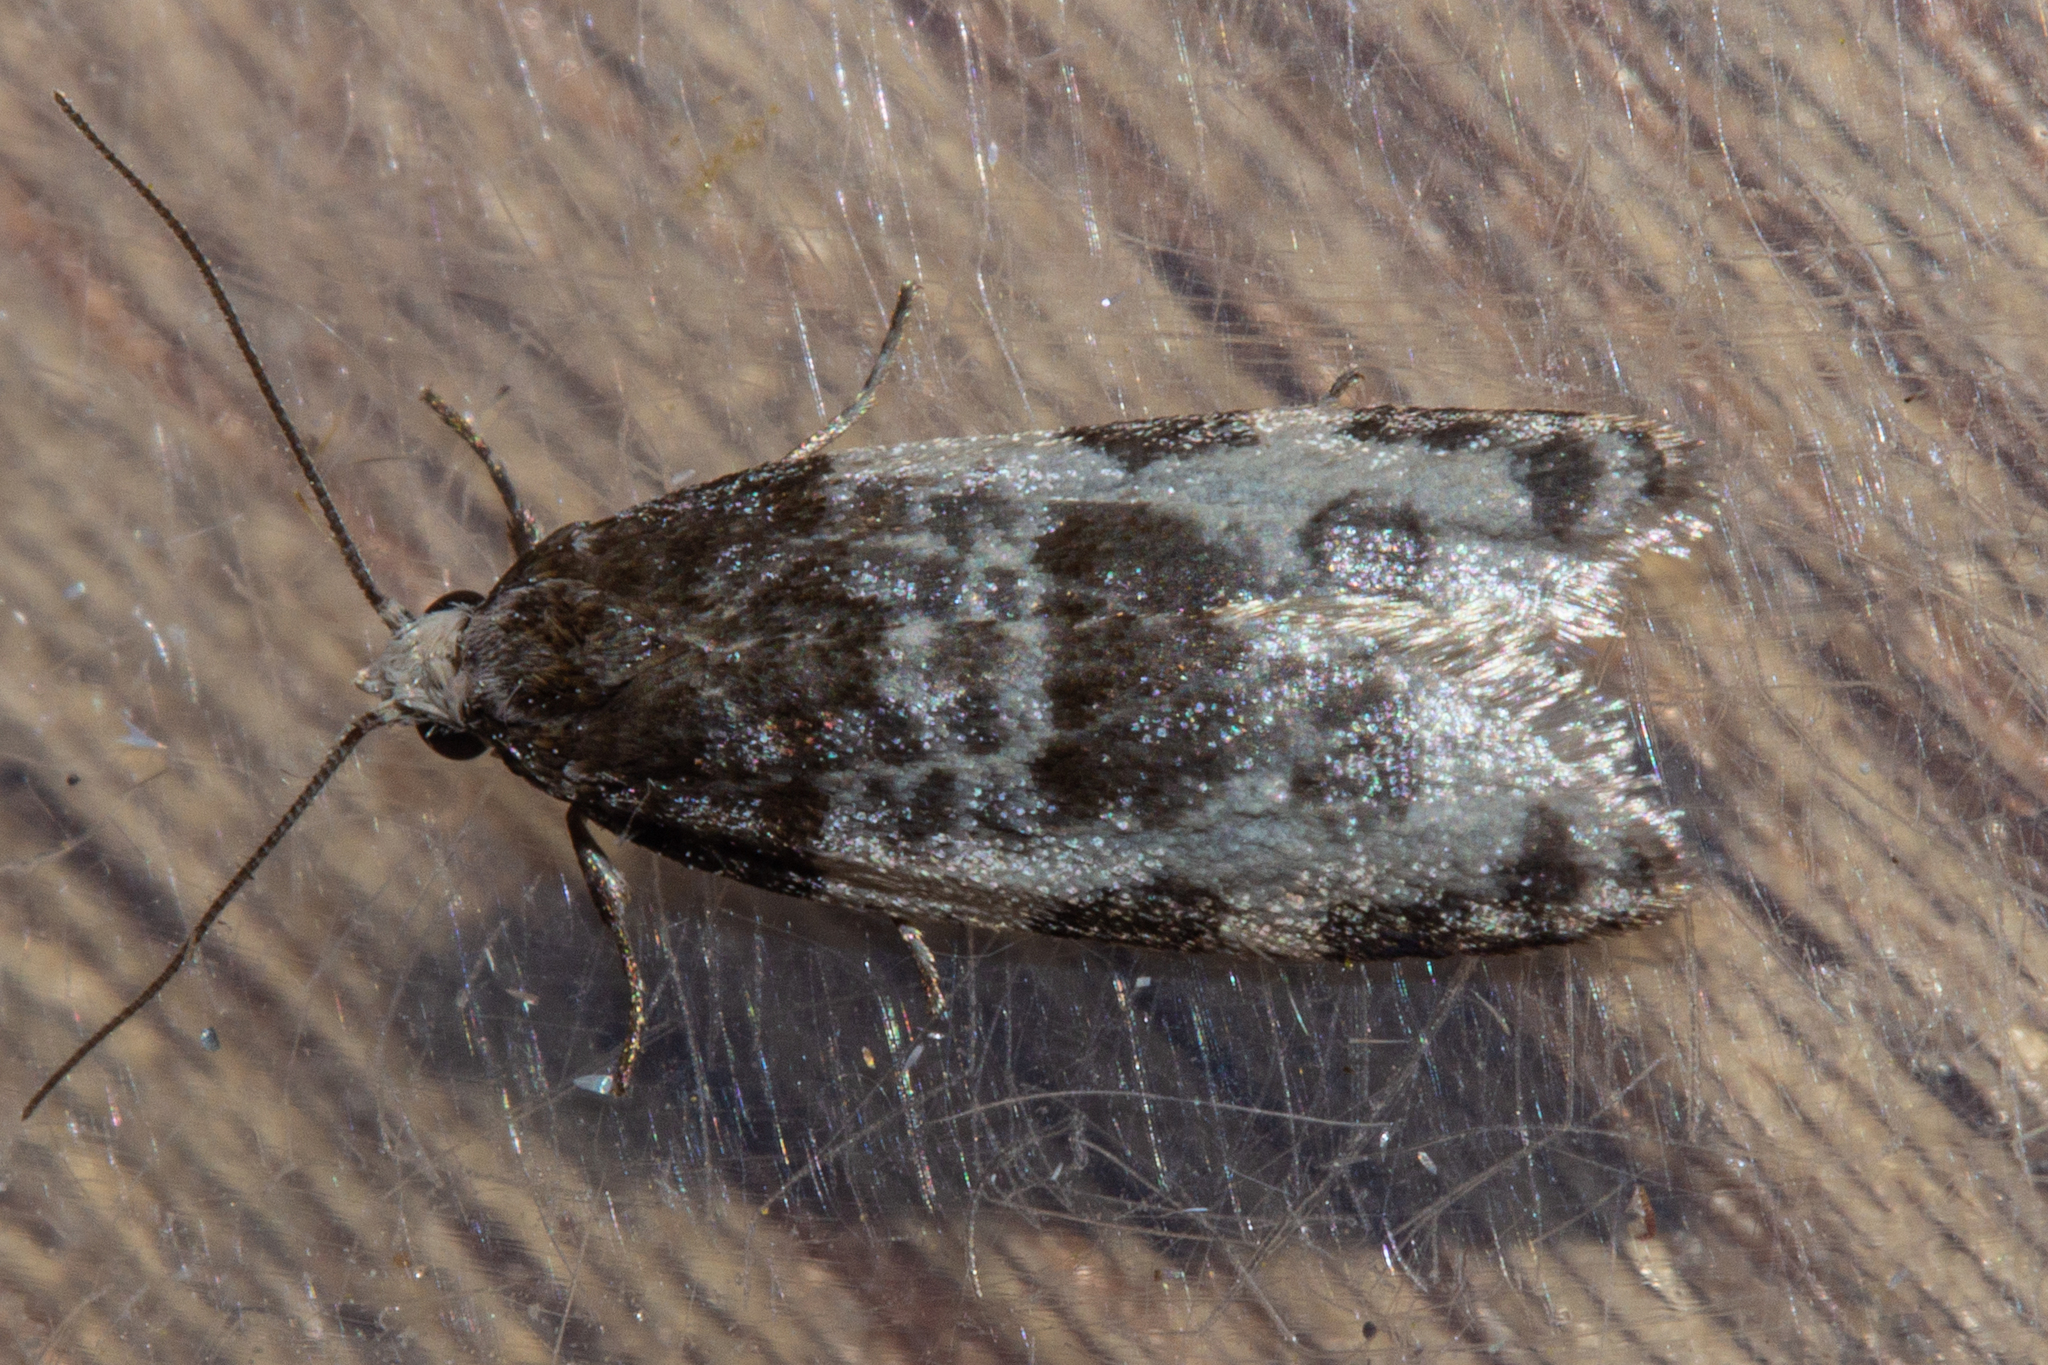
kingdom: Animalia
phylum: Arthropoda
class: Insecta
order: Lepidoptera
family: Tortricidae
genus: Prothelymna
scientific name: Prothelymna niphostrota
